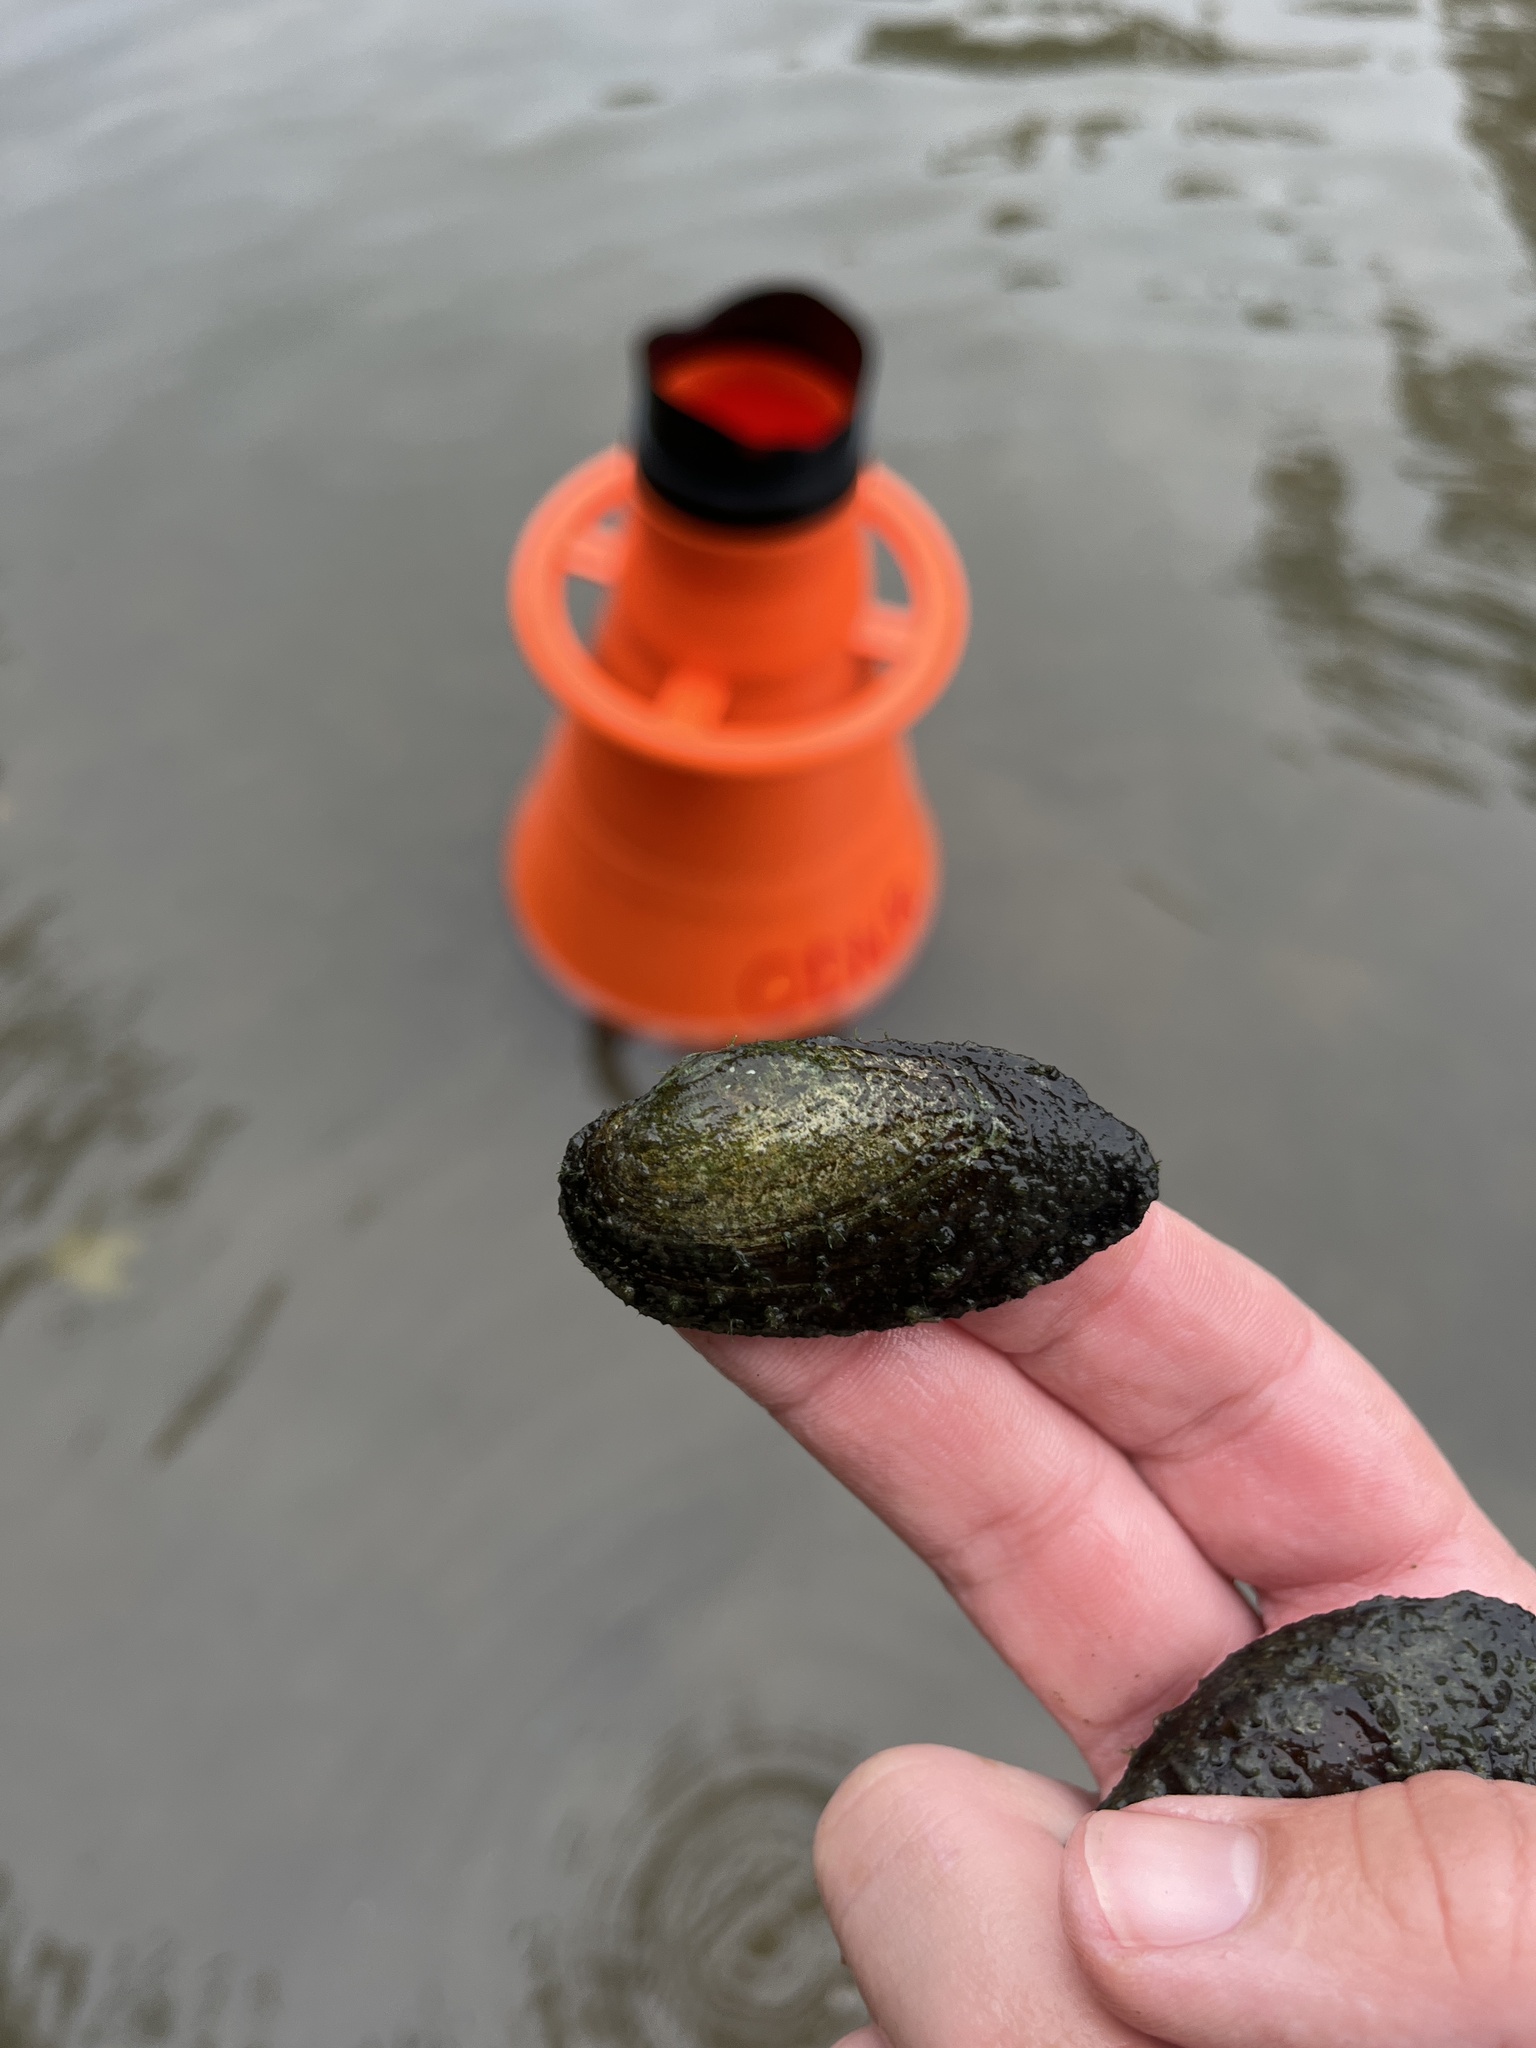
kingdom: Animalia
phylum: Mollusca
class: Bivalvia
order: Unionida
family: Unionidae
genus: Eurynia
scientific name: Eurynia dilatata
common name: Spike
